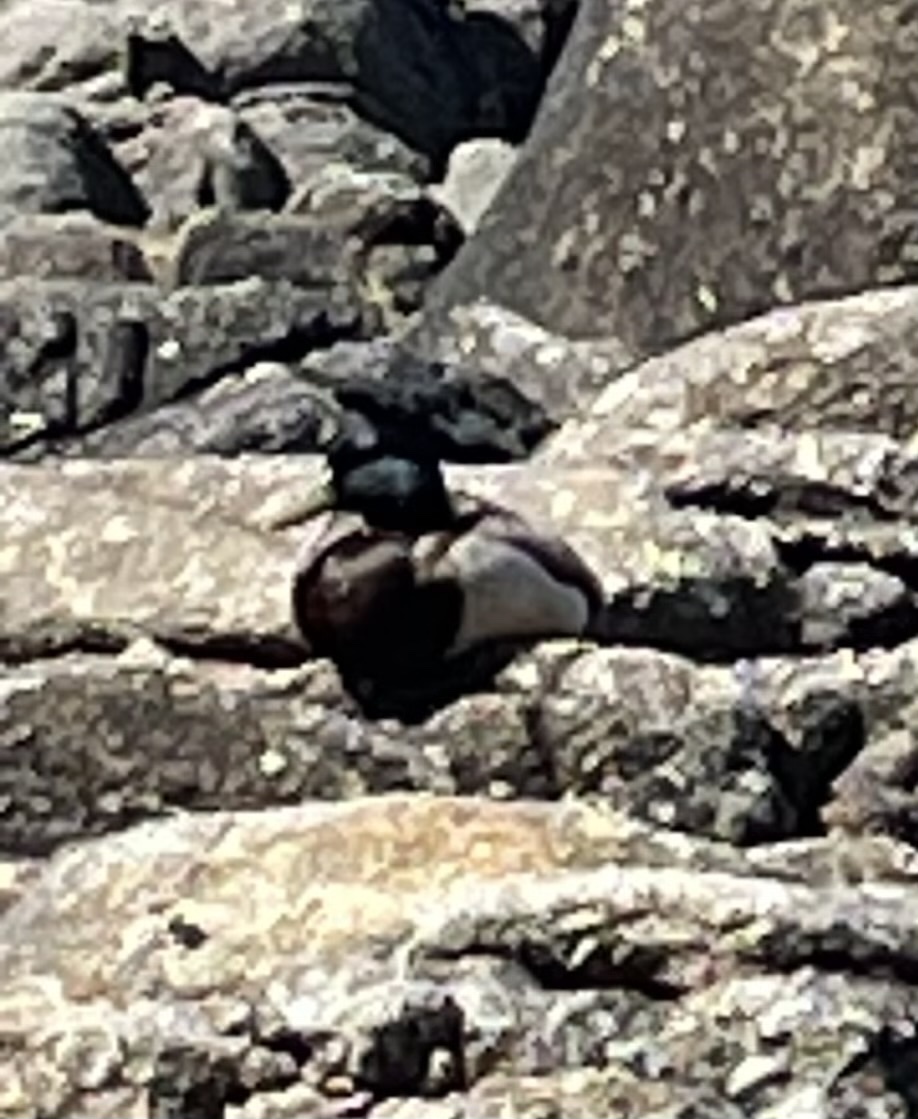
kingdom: Animalia
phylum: Chordata
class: Aves
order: Anseriformes
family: Anatidae
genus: Anas
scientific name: Anas platyrhynchos
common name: Mallard
